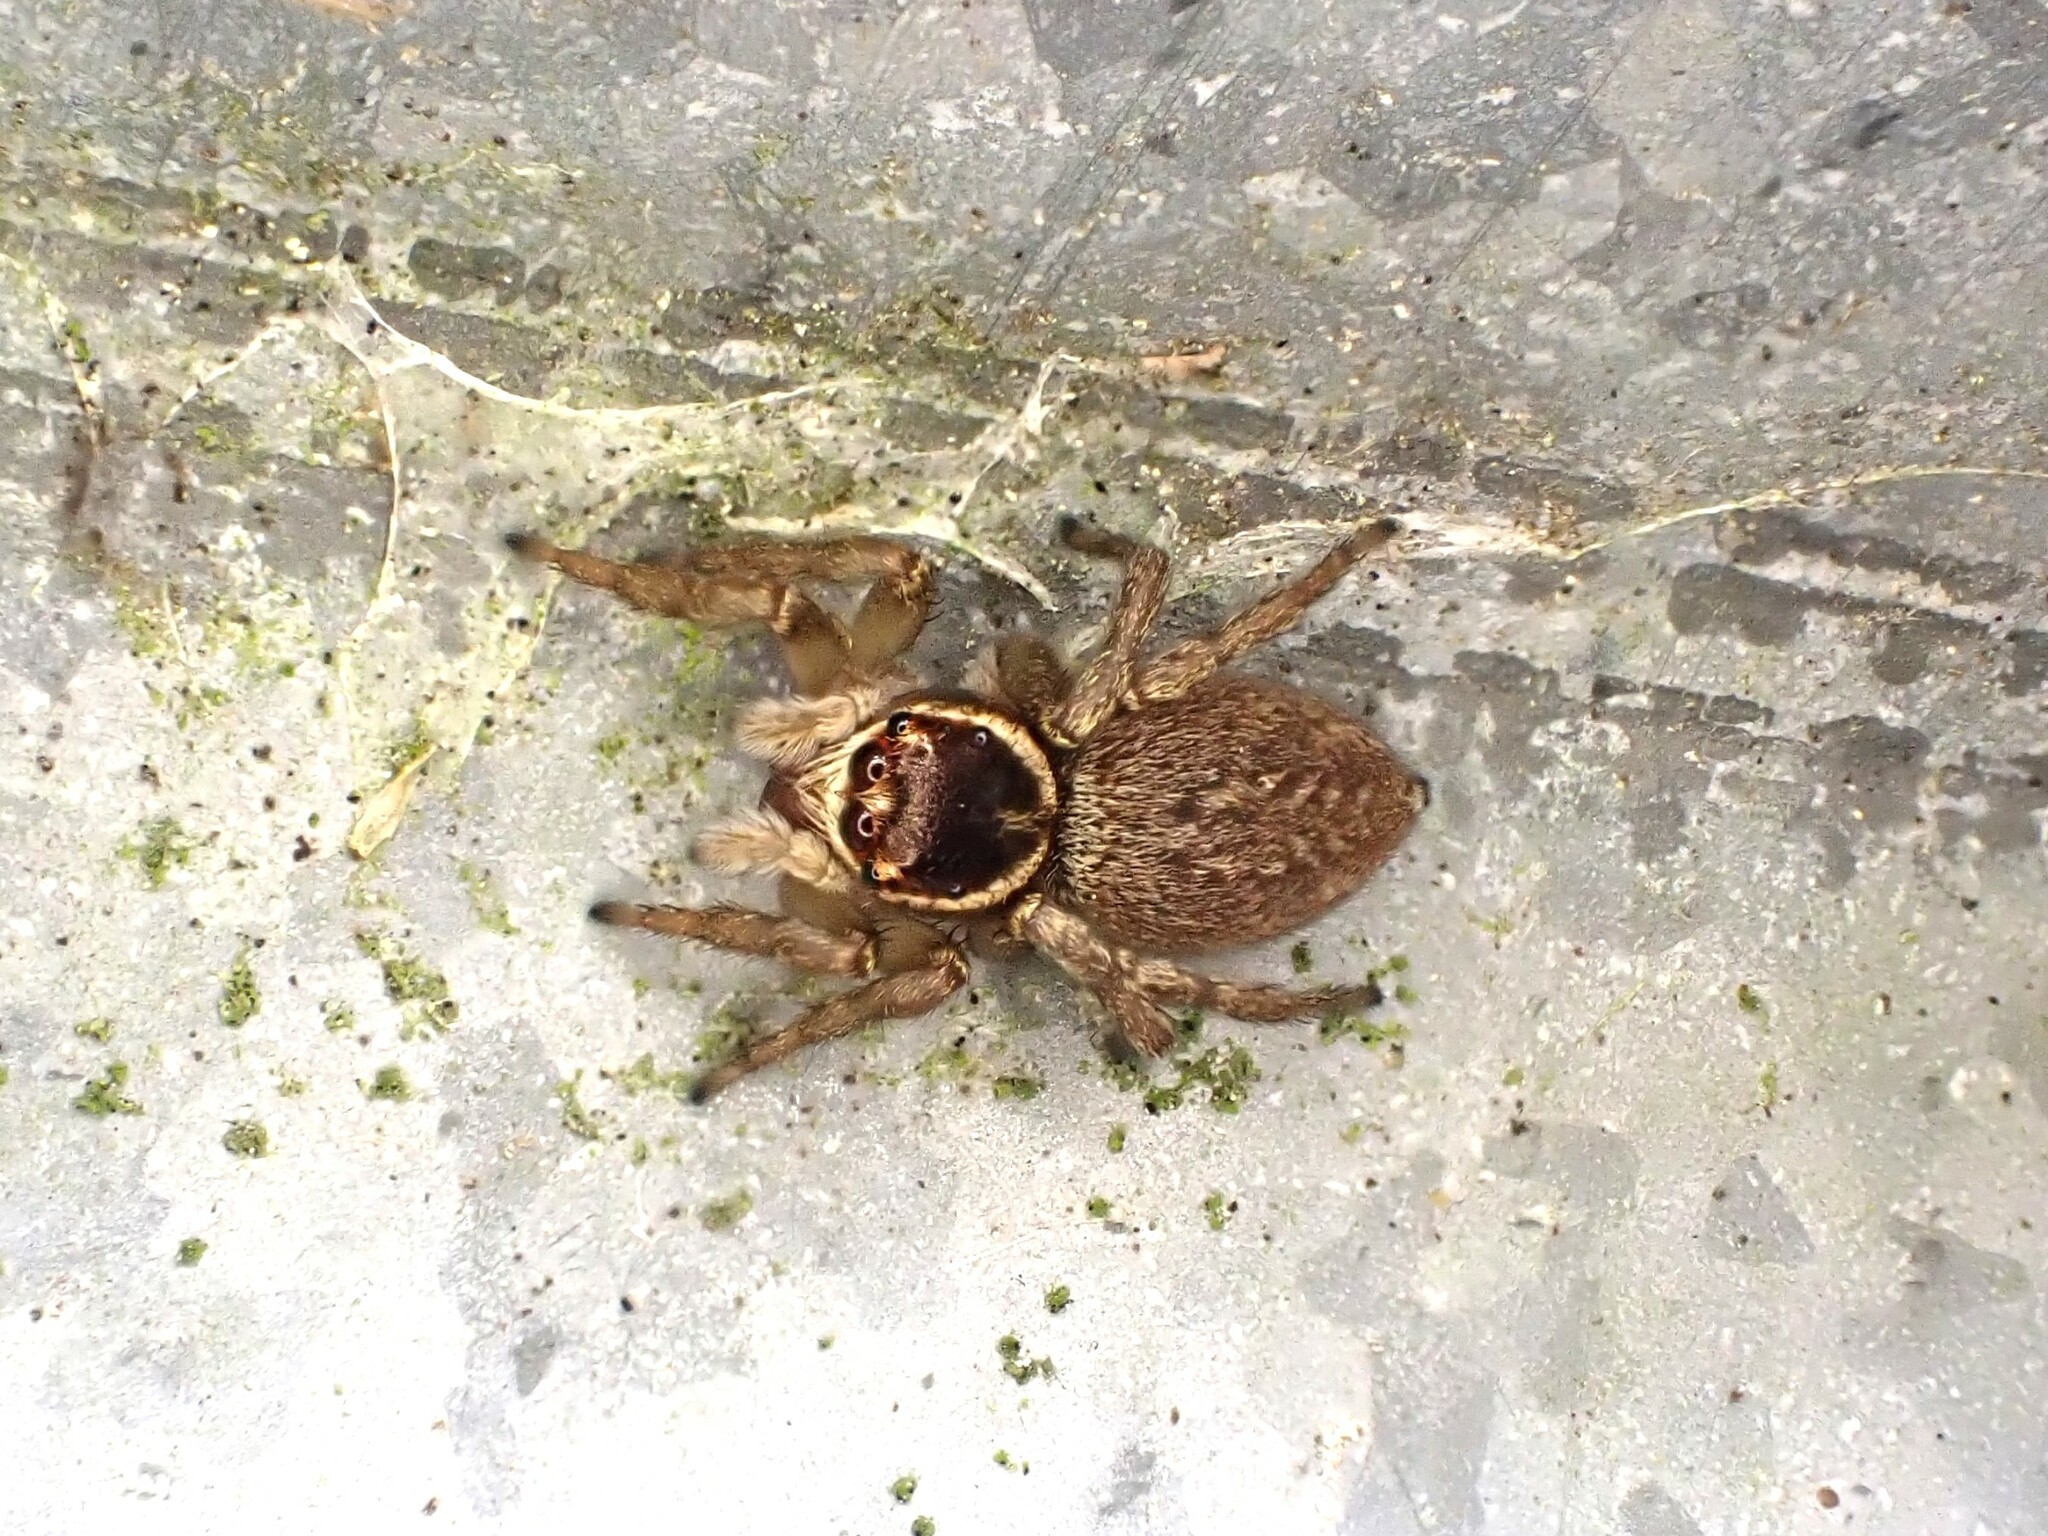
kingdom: Animalia
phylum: Arthropoda
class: Arachnida
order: Araneae
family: Salticidae
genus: Maratus
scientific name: Maratus griseus
